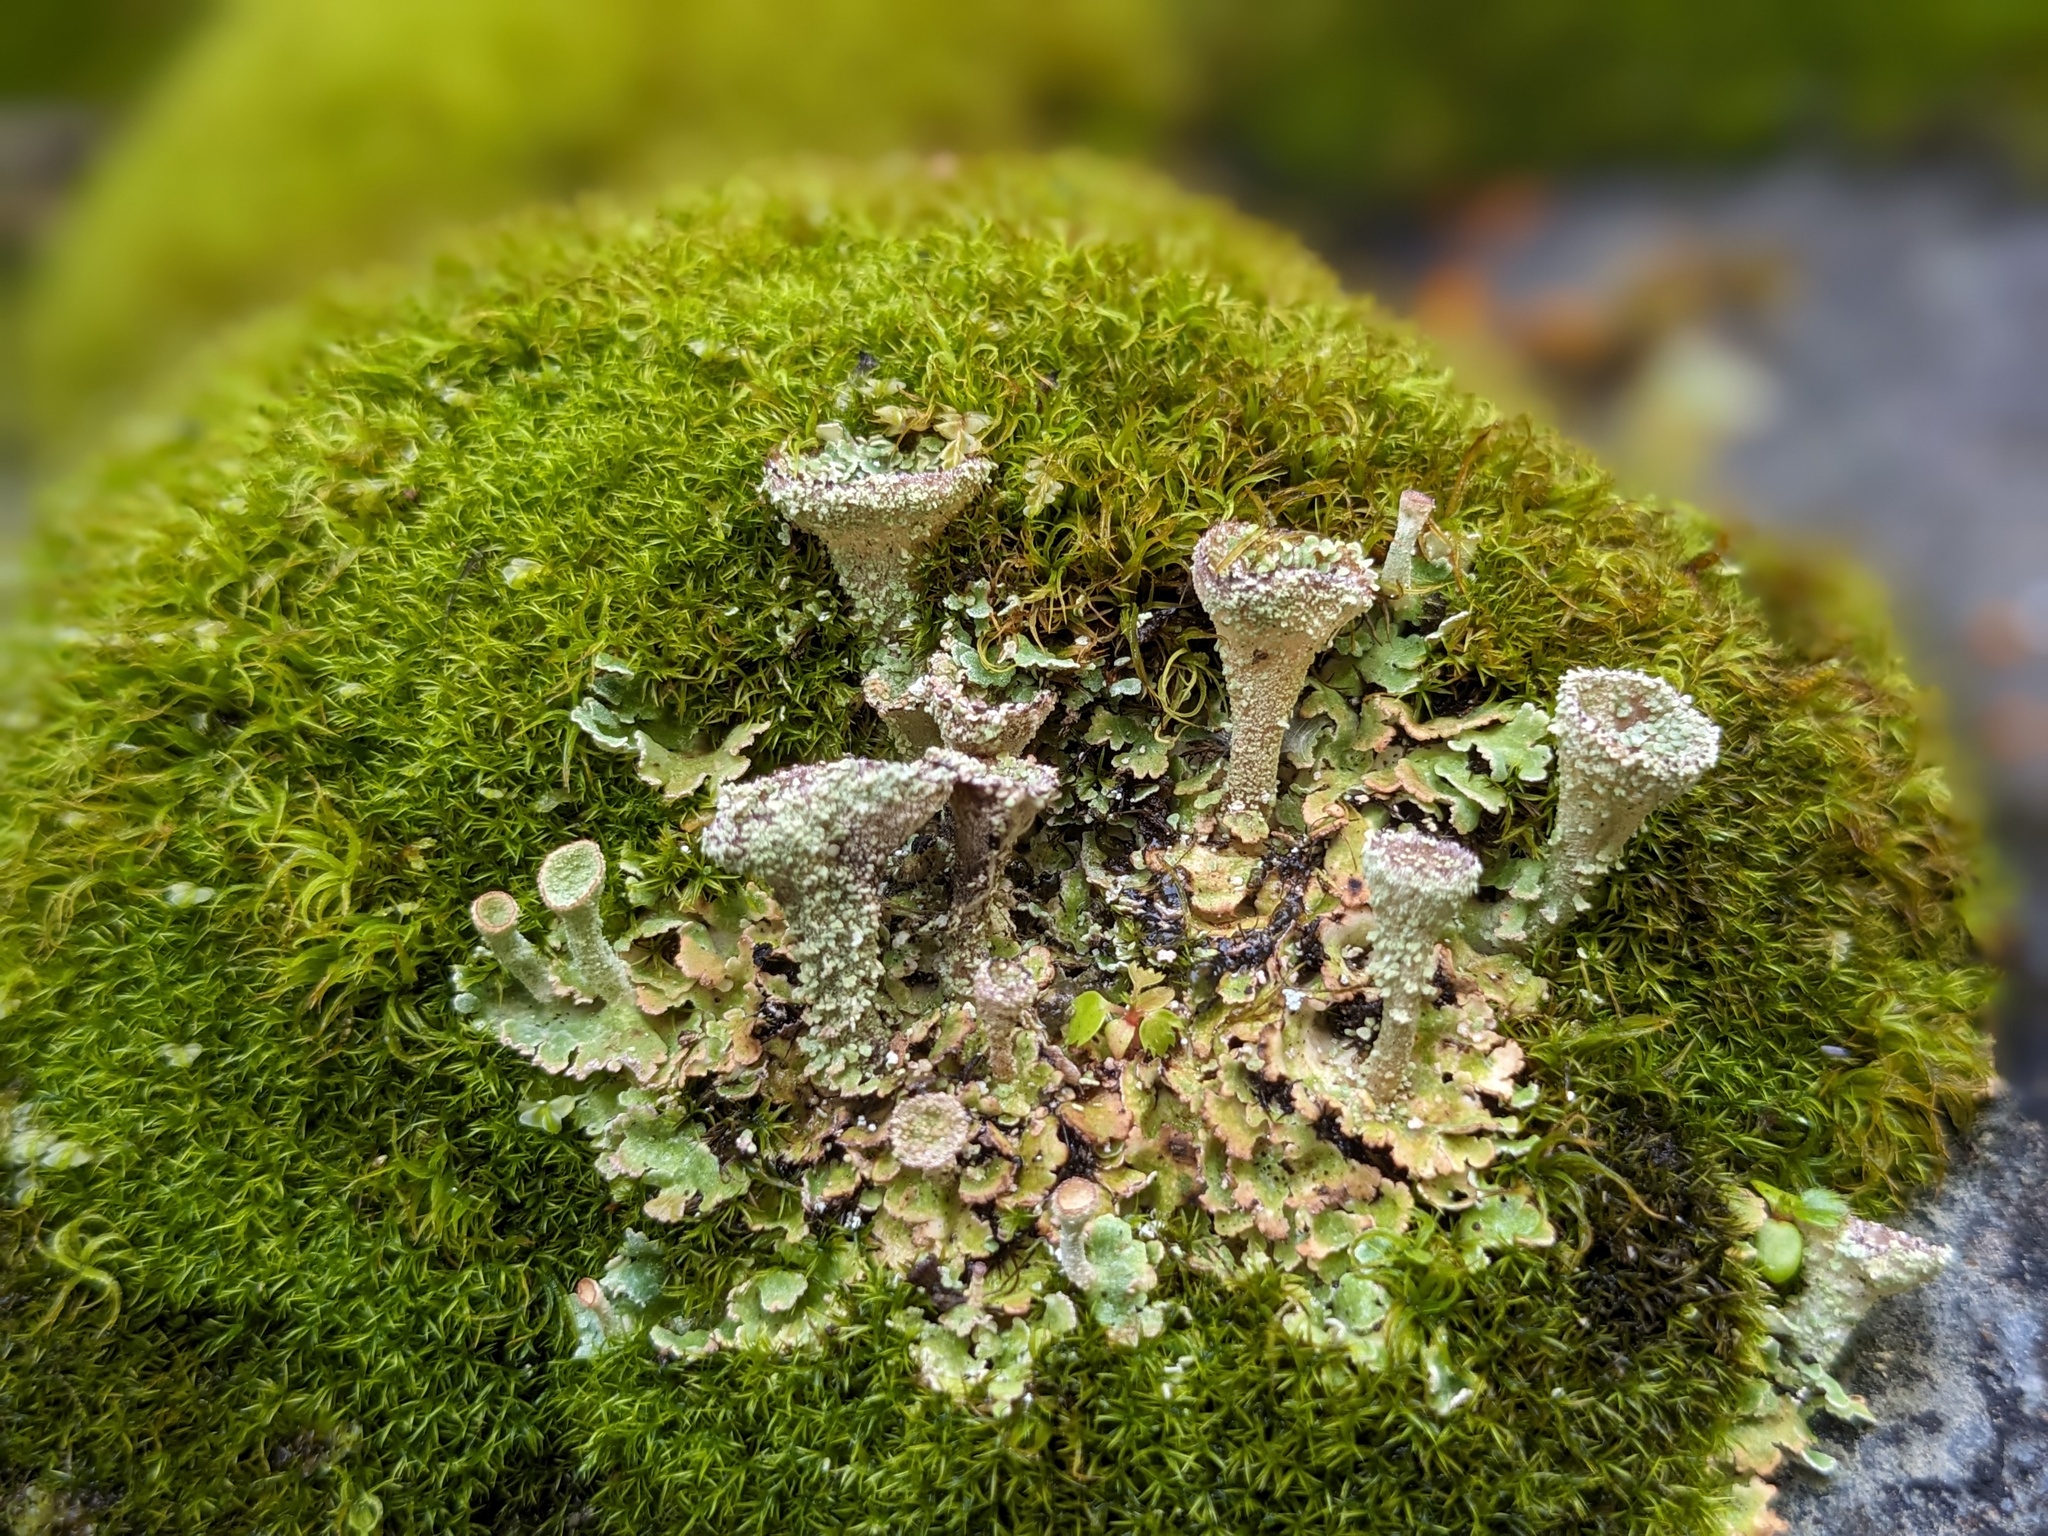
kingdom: Fungi
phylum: Ascomycota
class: Lecanoromycetes
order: Lecanorales
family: Cladoniaceae
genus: Cladonia
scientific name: Cladonia pocillum
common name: Rosette pixie-cup lichen
